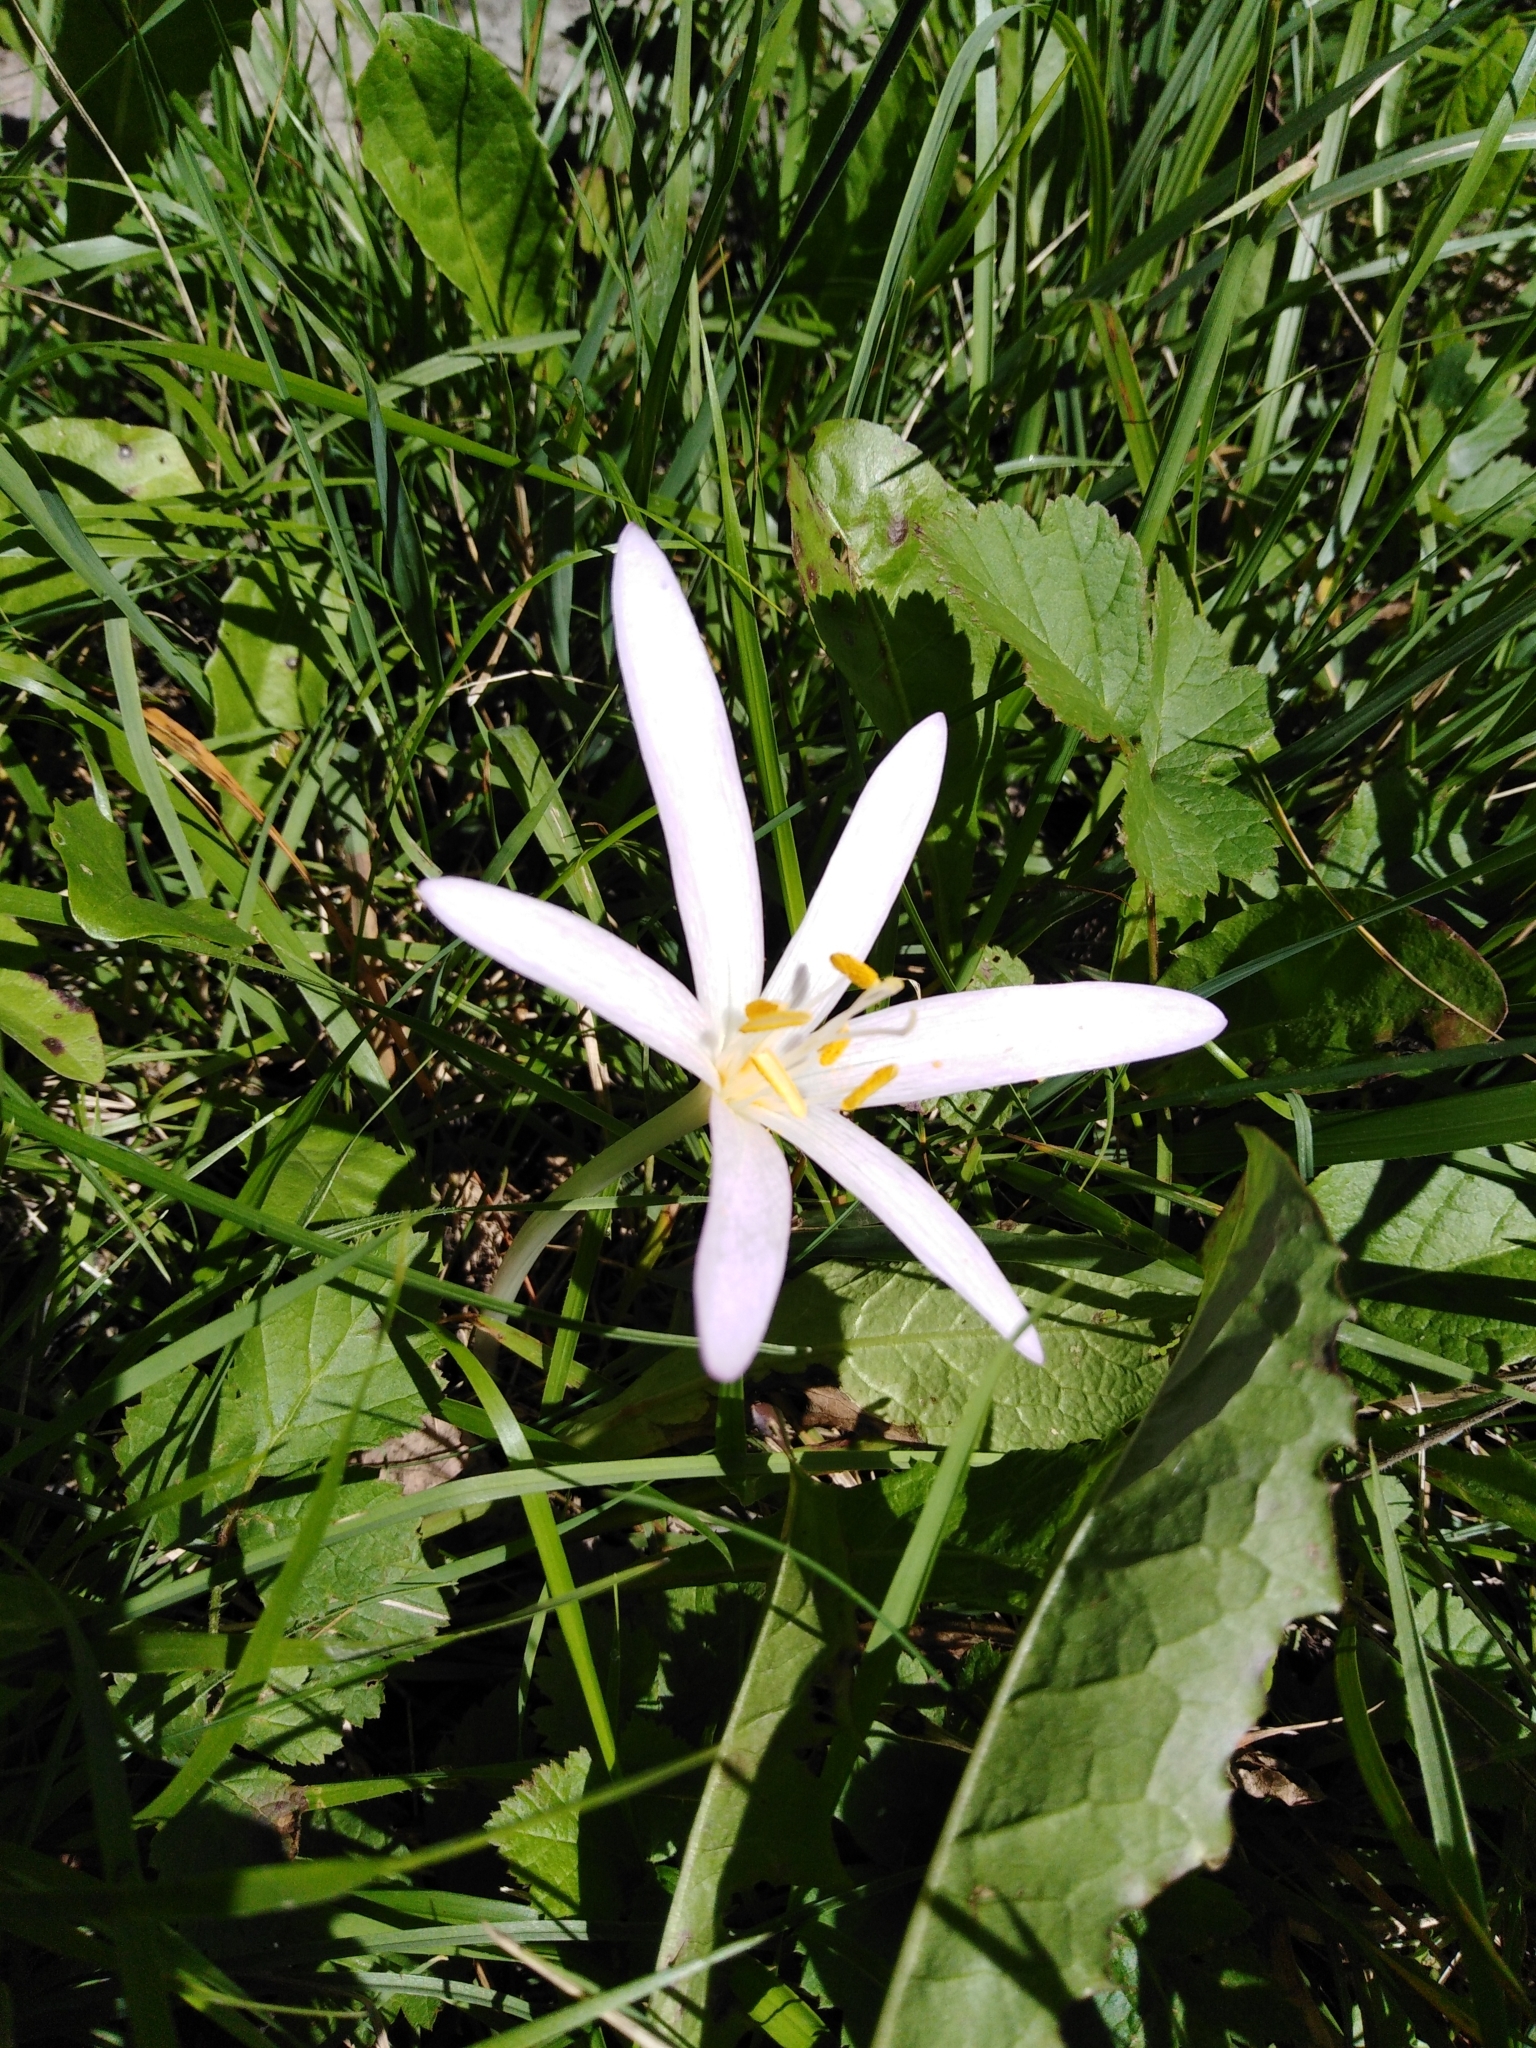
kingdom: Plantae
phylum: Tracheophyta
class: Liliopsida
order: Liliales
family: Colchicaceae
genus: Colchicum
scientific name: Colchicum autumnale
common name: Autumn crocus
